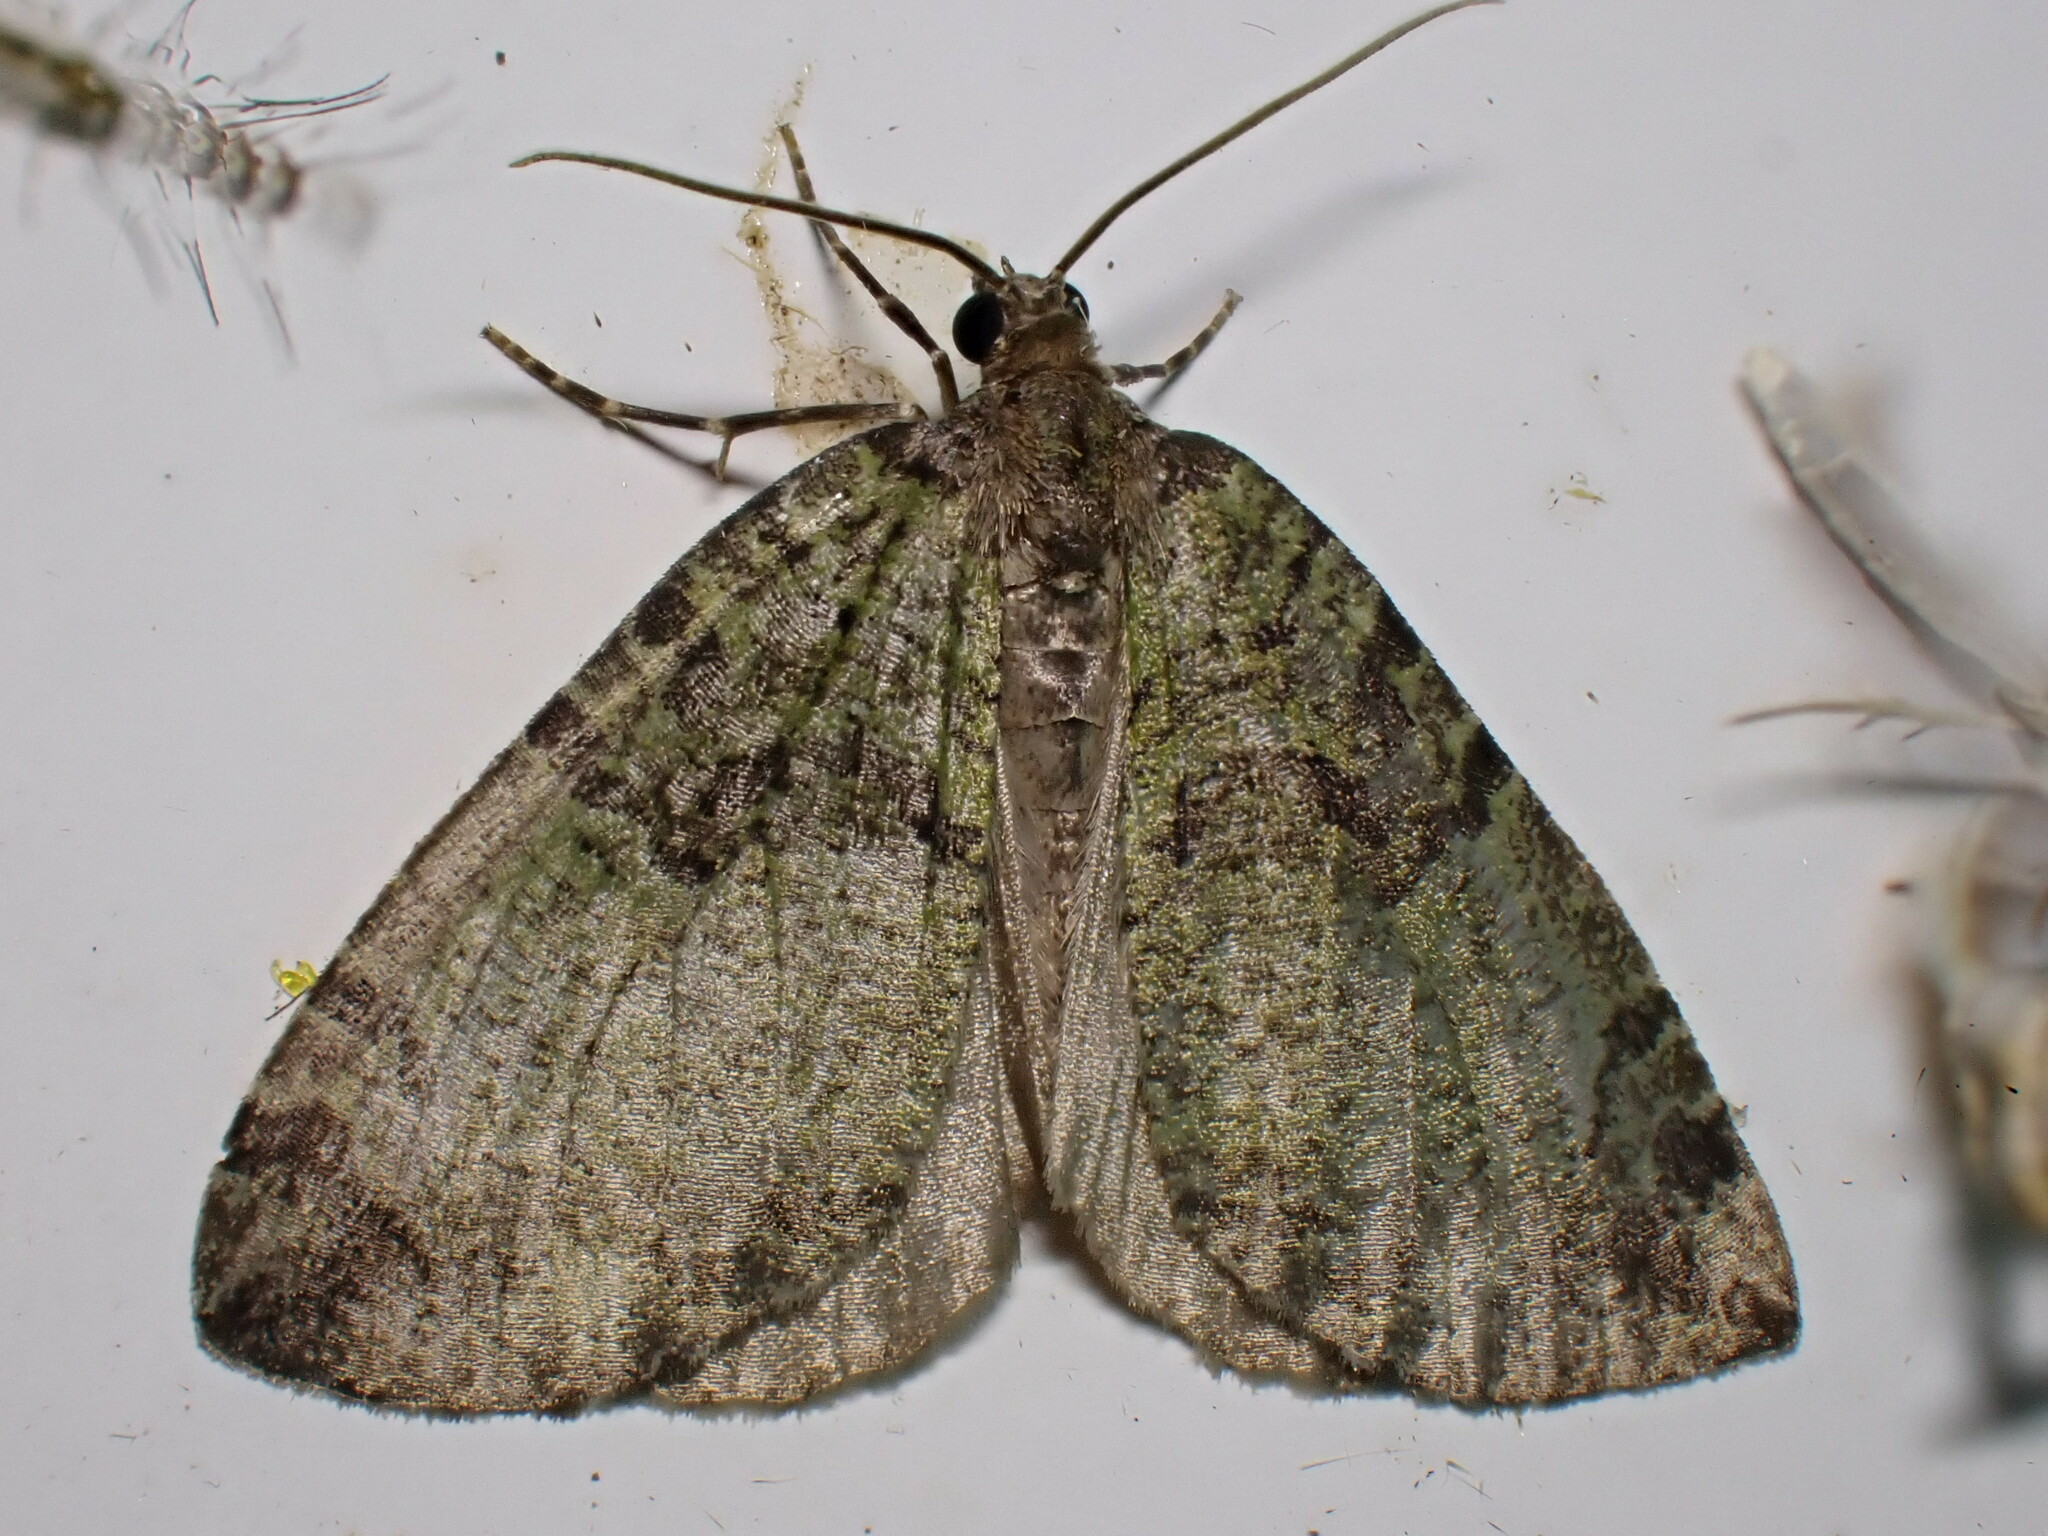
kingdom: Animalia
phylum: Arthropoda
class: Insecta
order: Lepidoptera
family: Geometridae
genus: Hydriomena
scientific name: Hydriomena furcata
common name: July highflyer
